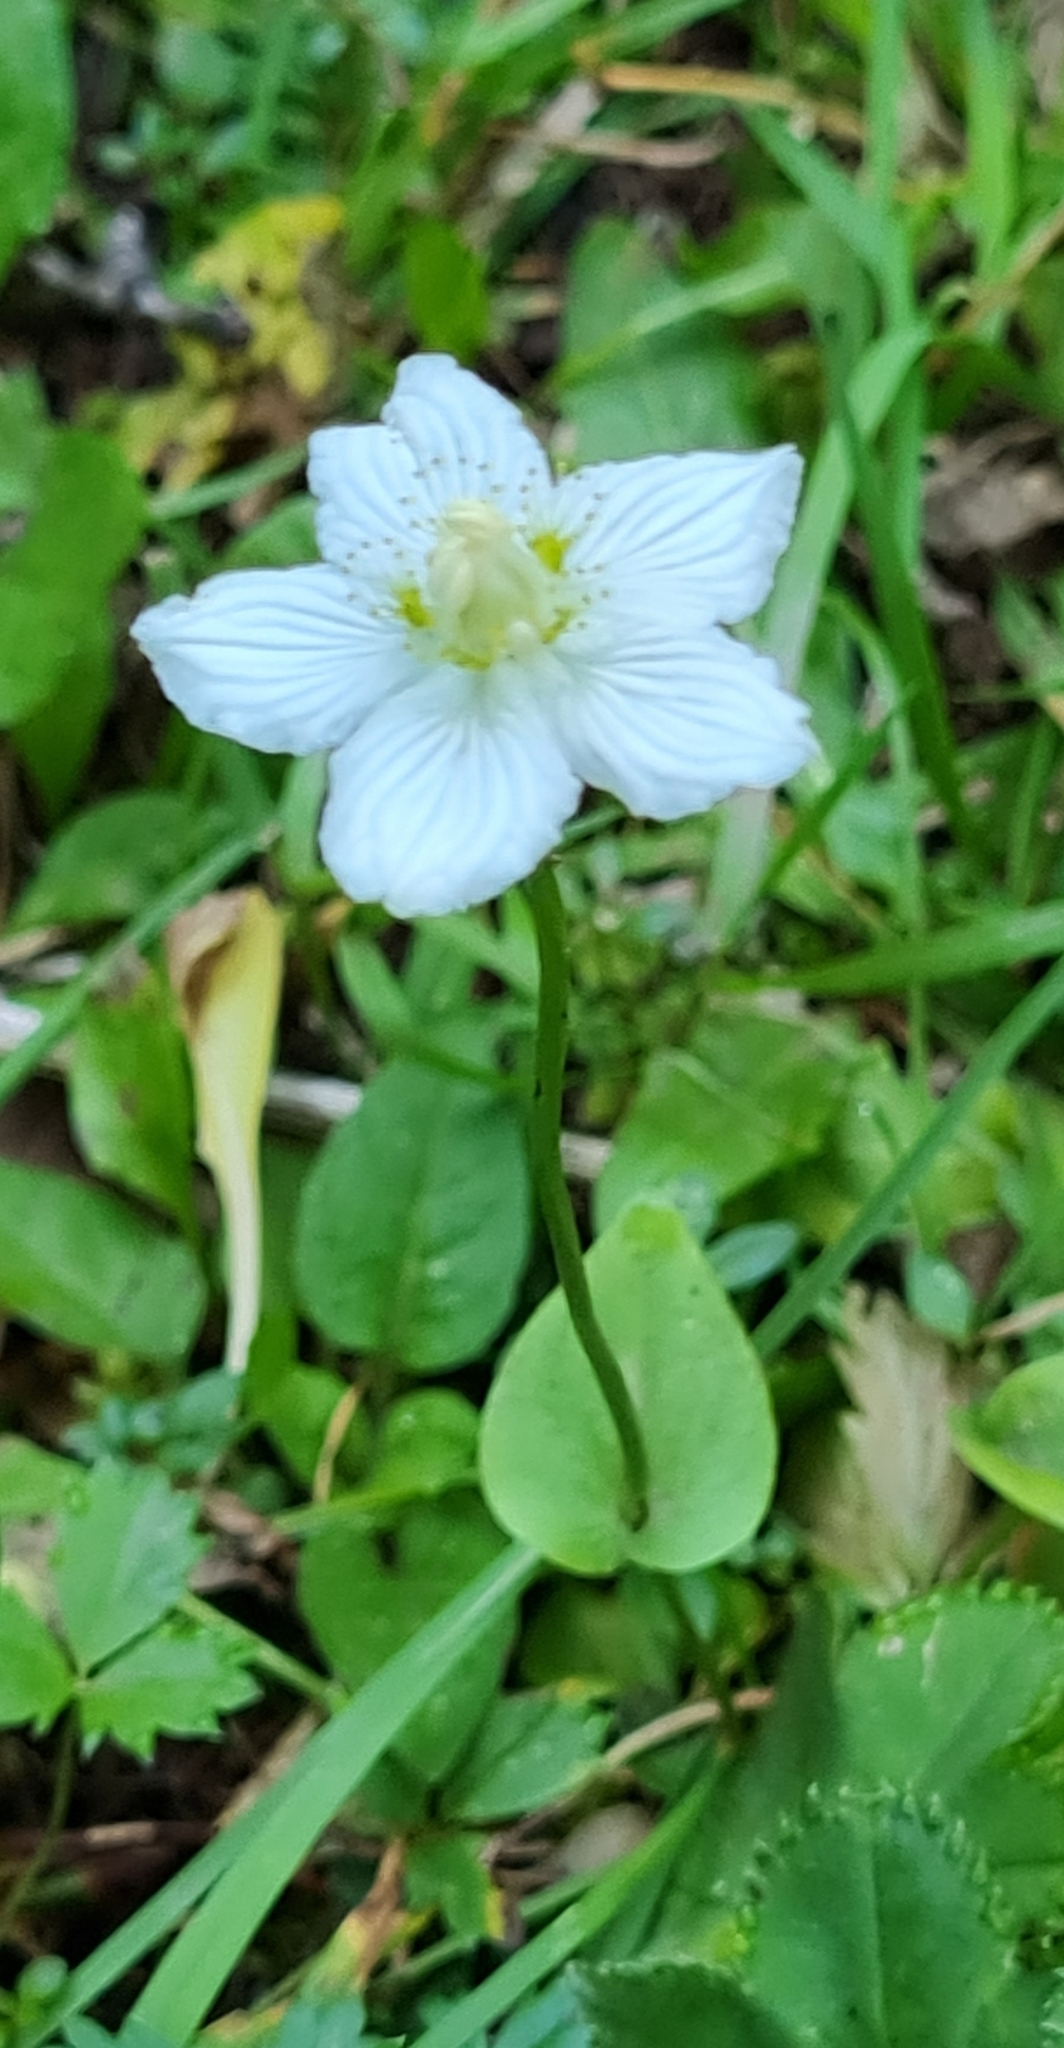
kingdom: Plantae
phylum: Tracheophyta
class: Magnoliopsida
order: Celastrales
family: Parnassiaceae
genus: Parnassia
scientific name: Parnassia palustris
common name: Grass-of-parnassus
